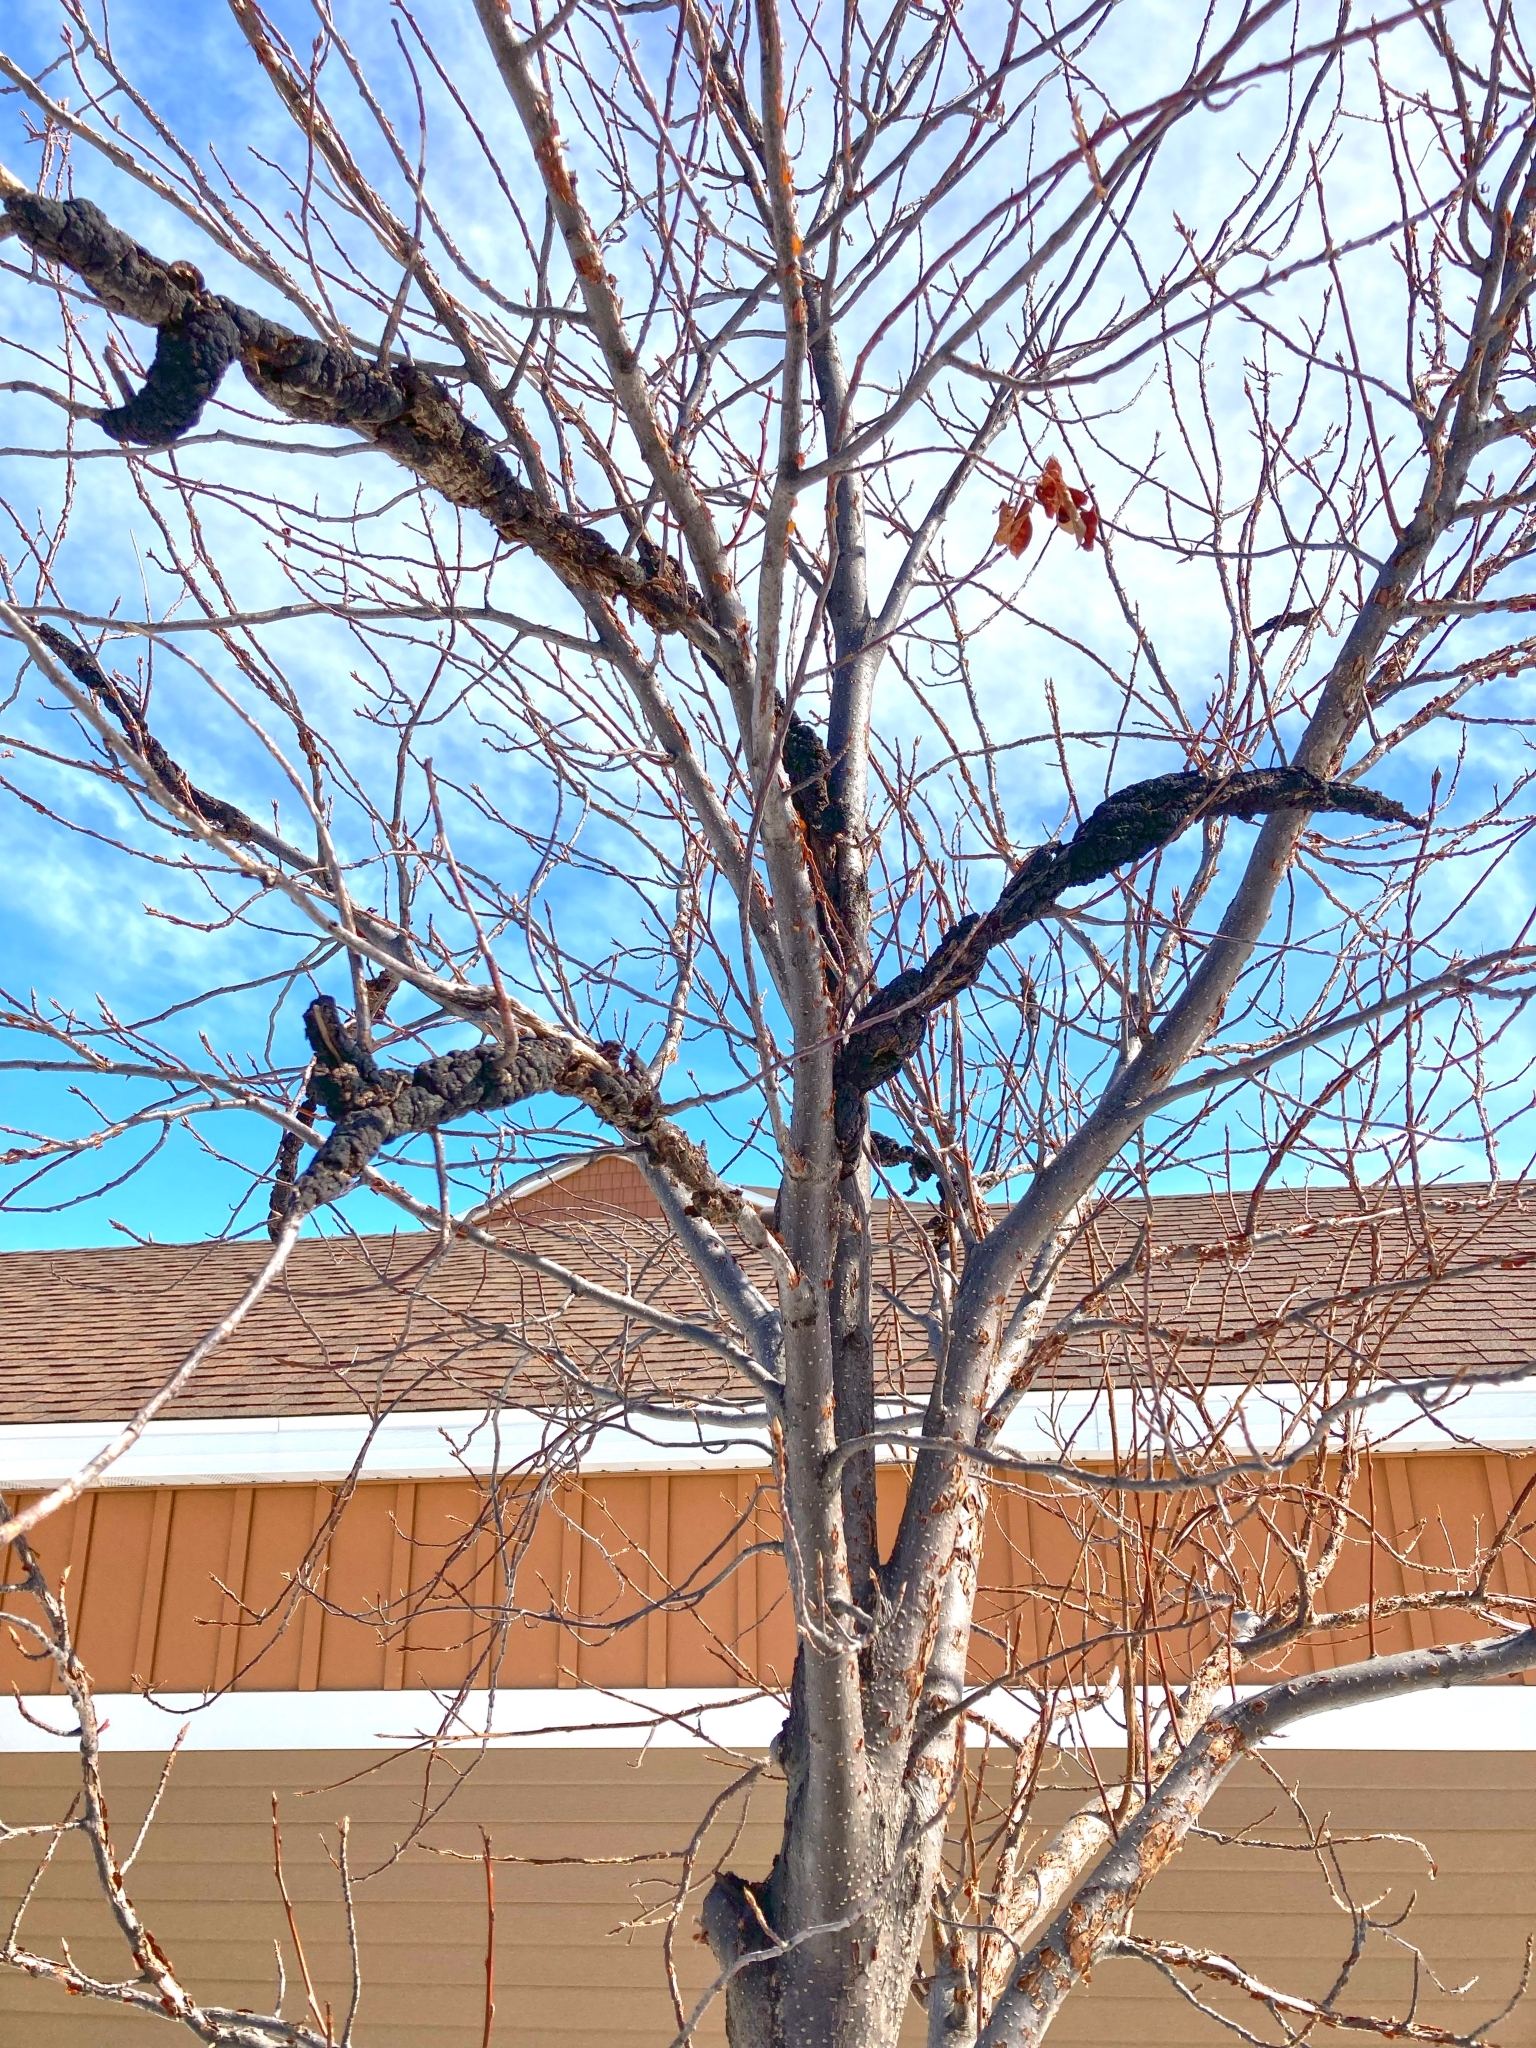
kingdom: Fungi
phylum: Ascomycota
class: Dothideomycetes
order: Venturiales
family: Venturiaceae
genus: Apiosporina
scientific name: Apiosporina morbosa
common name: Black knot
